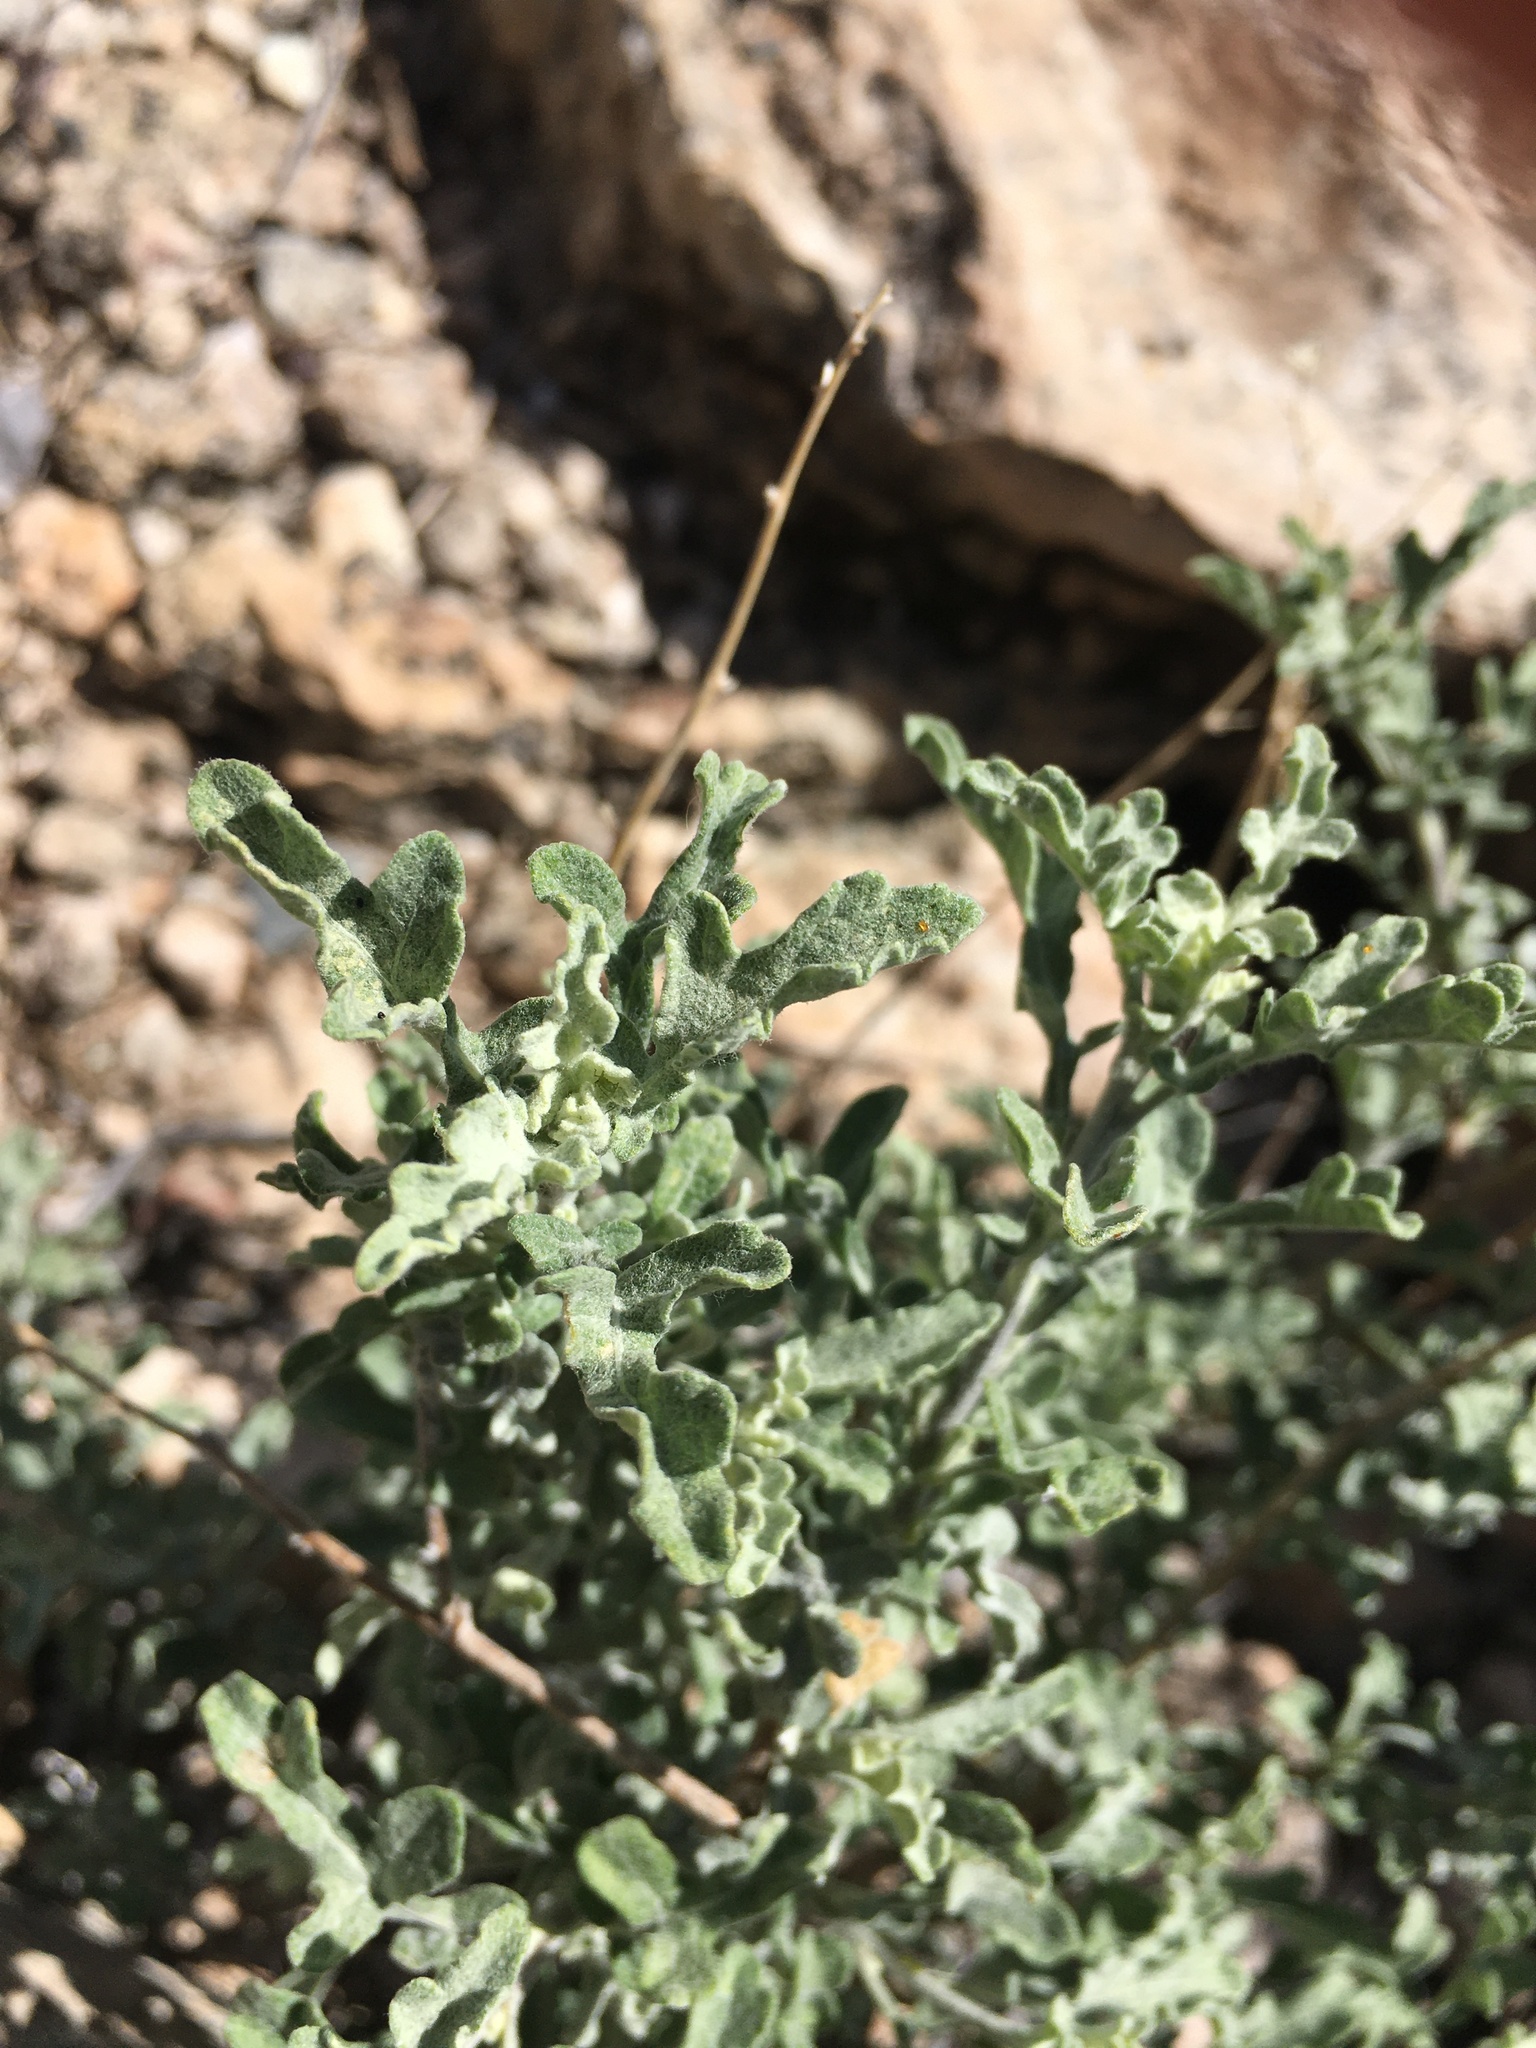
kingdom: Plantae
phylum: Tracheophyta
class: Magnoliopsida
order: Asterales
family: Asteraceae
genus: Parthenium
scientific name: Parthenium incanum
